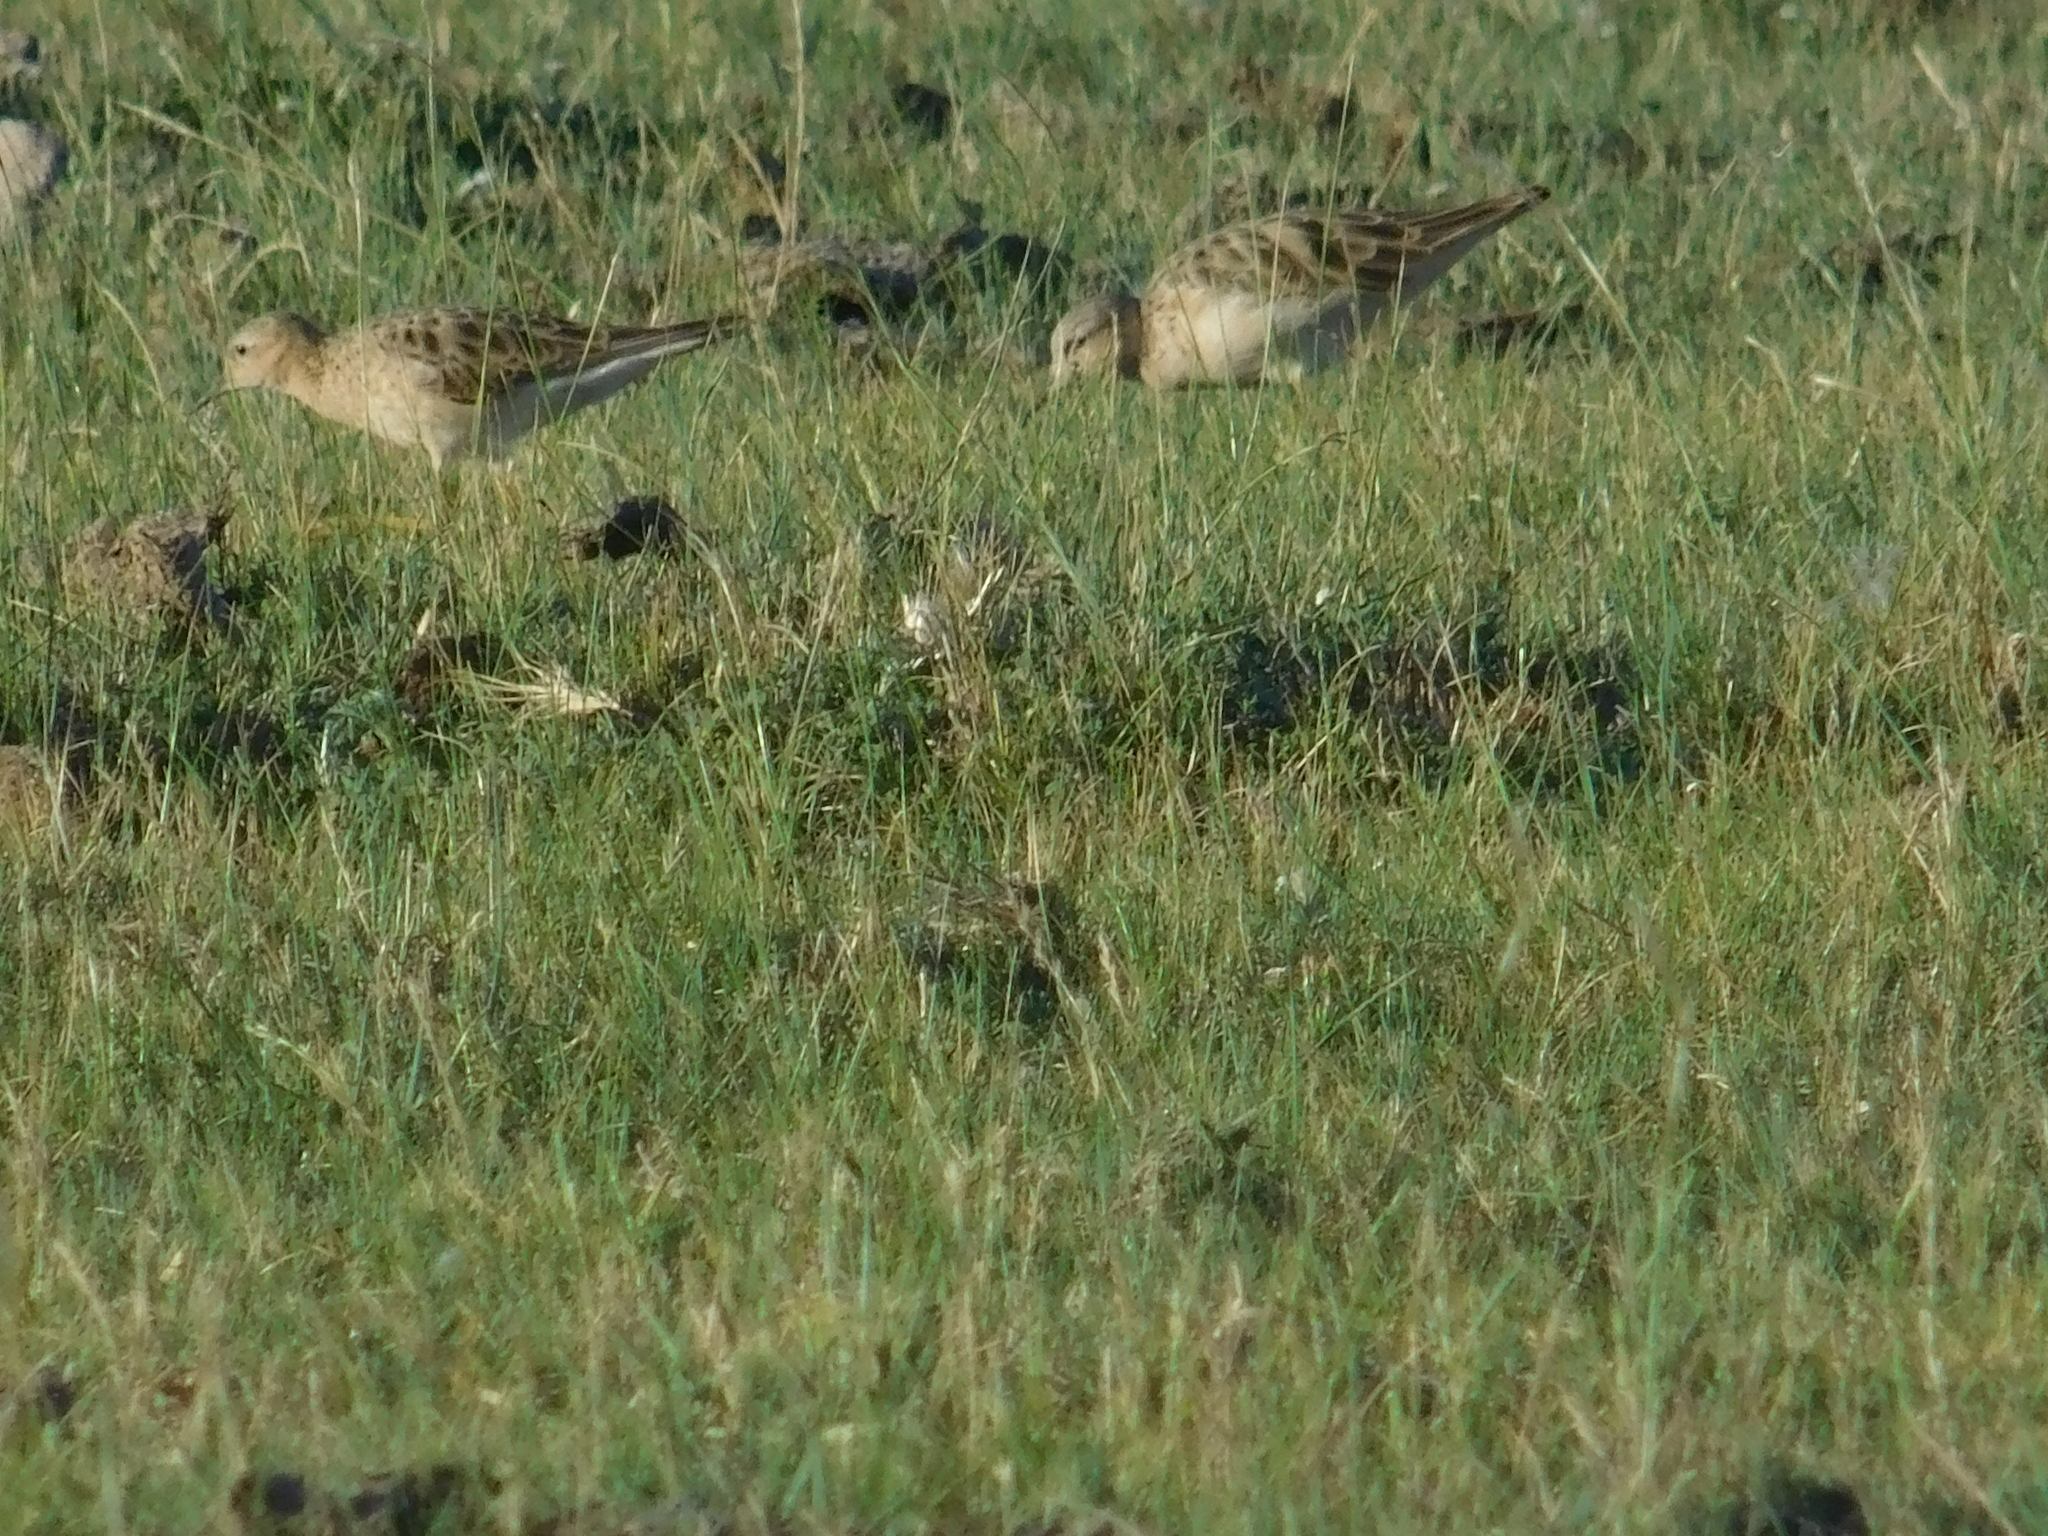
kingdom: Animalia
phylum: Chordata
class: Aves
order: Charadriiformes
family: Scolopacidae
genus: Calidris
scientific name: Calidris subruficollis
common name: Buff-breasted sandpiper
